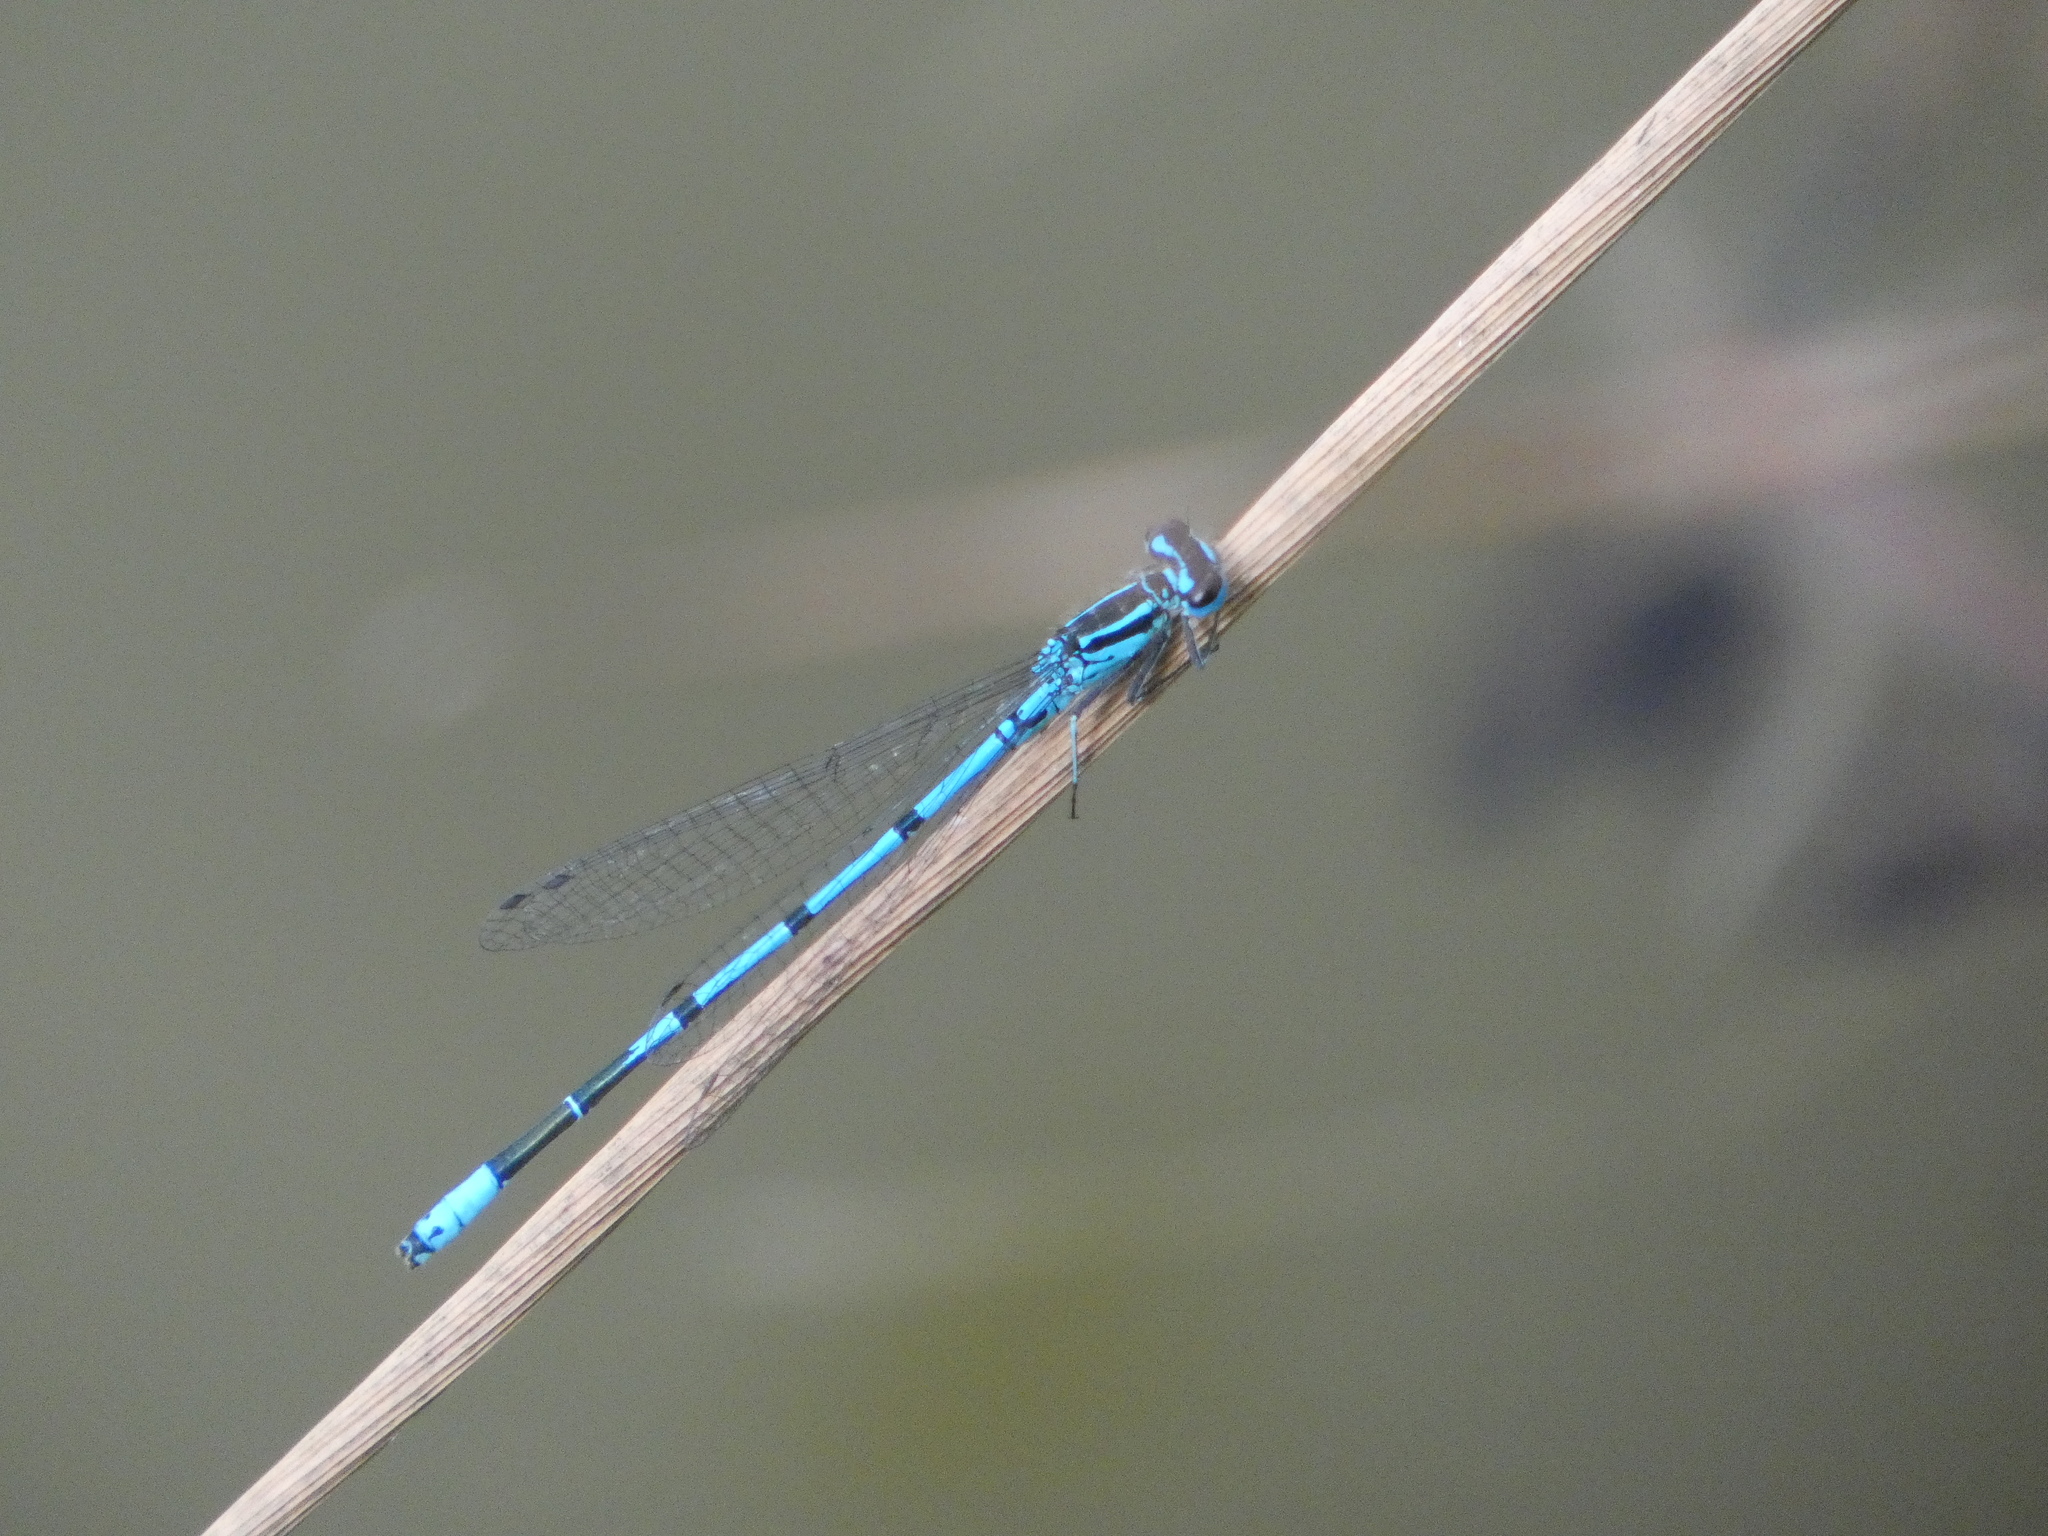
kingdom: Animalia
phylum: Arthropoda
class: Insecta
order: Odonata
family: Coenagrionidae
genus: Coenagrion
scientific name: Coenagrion puella
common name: Azure damselfly
